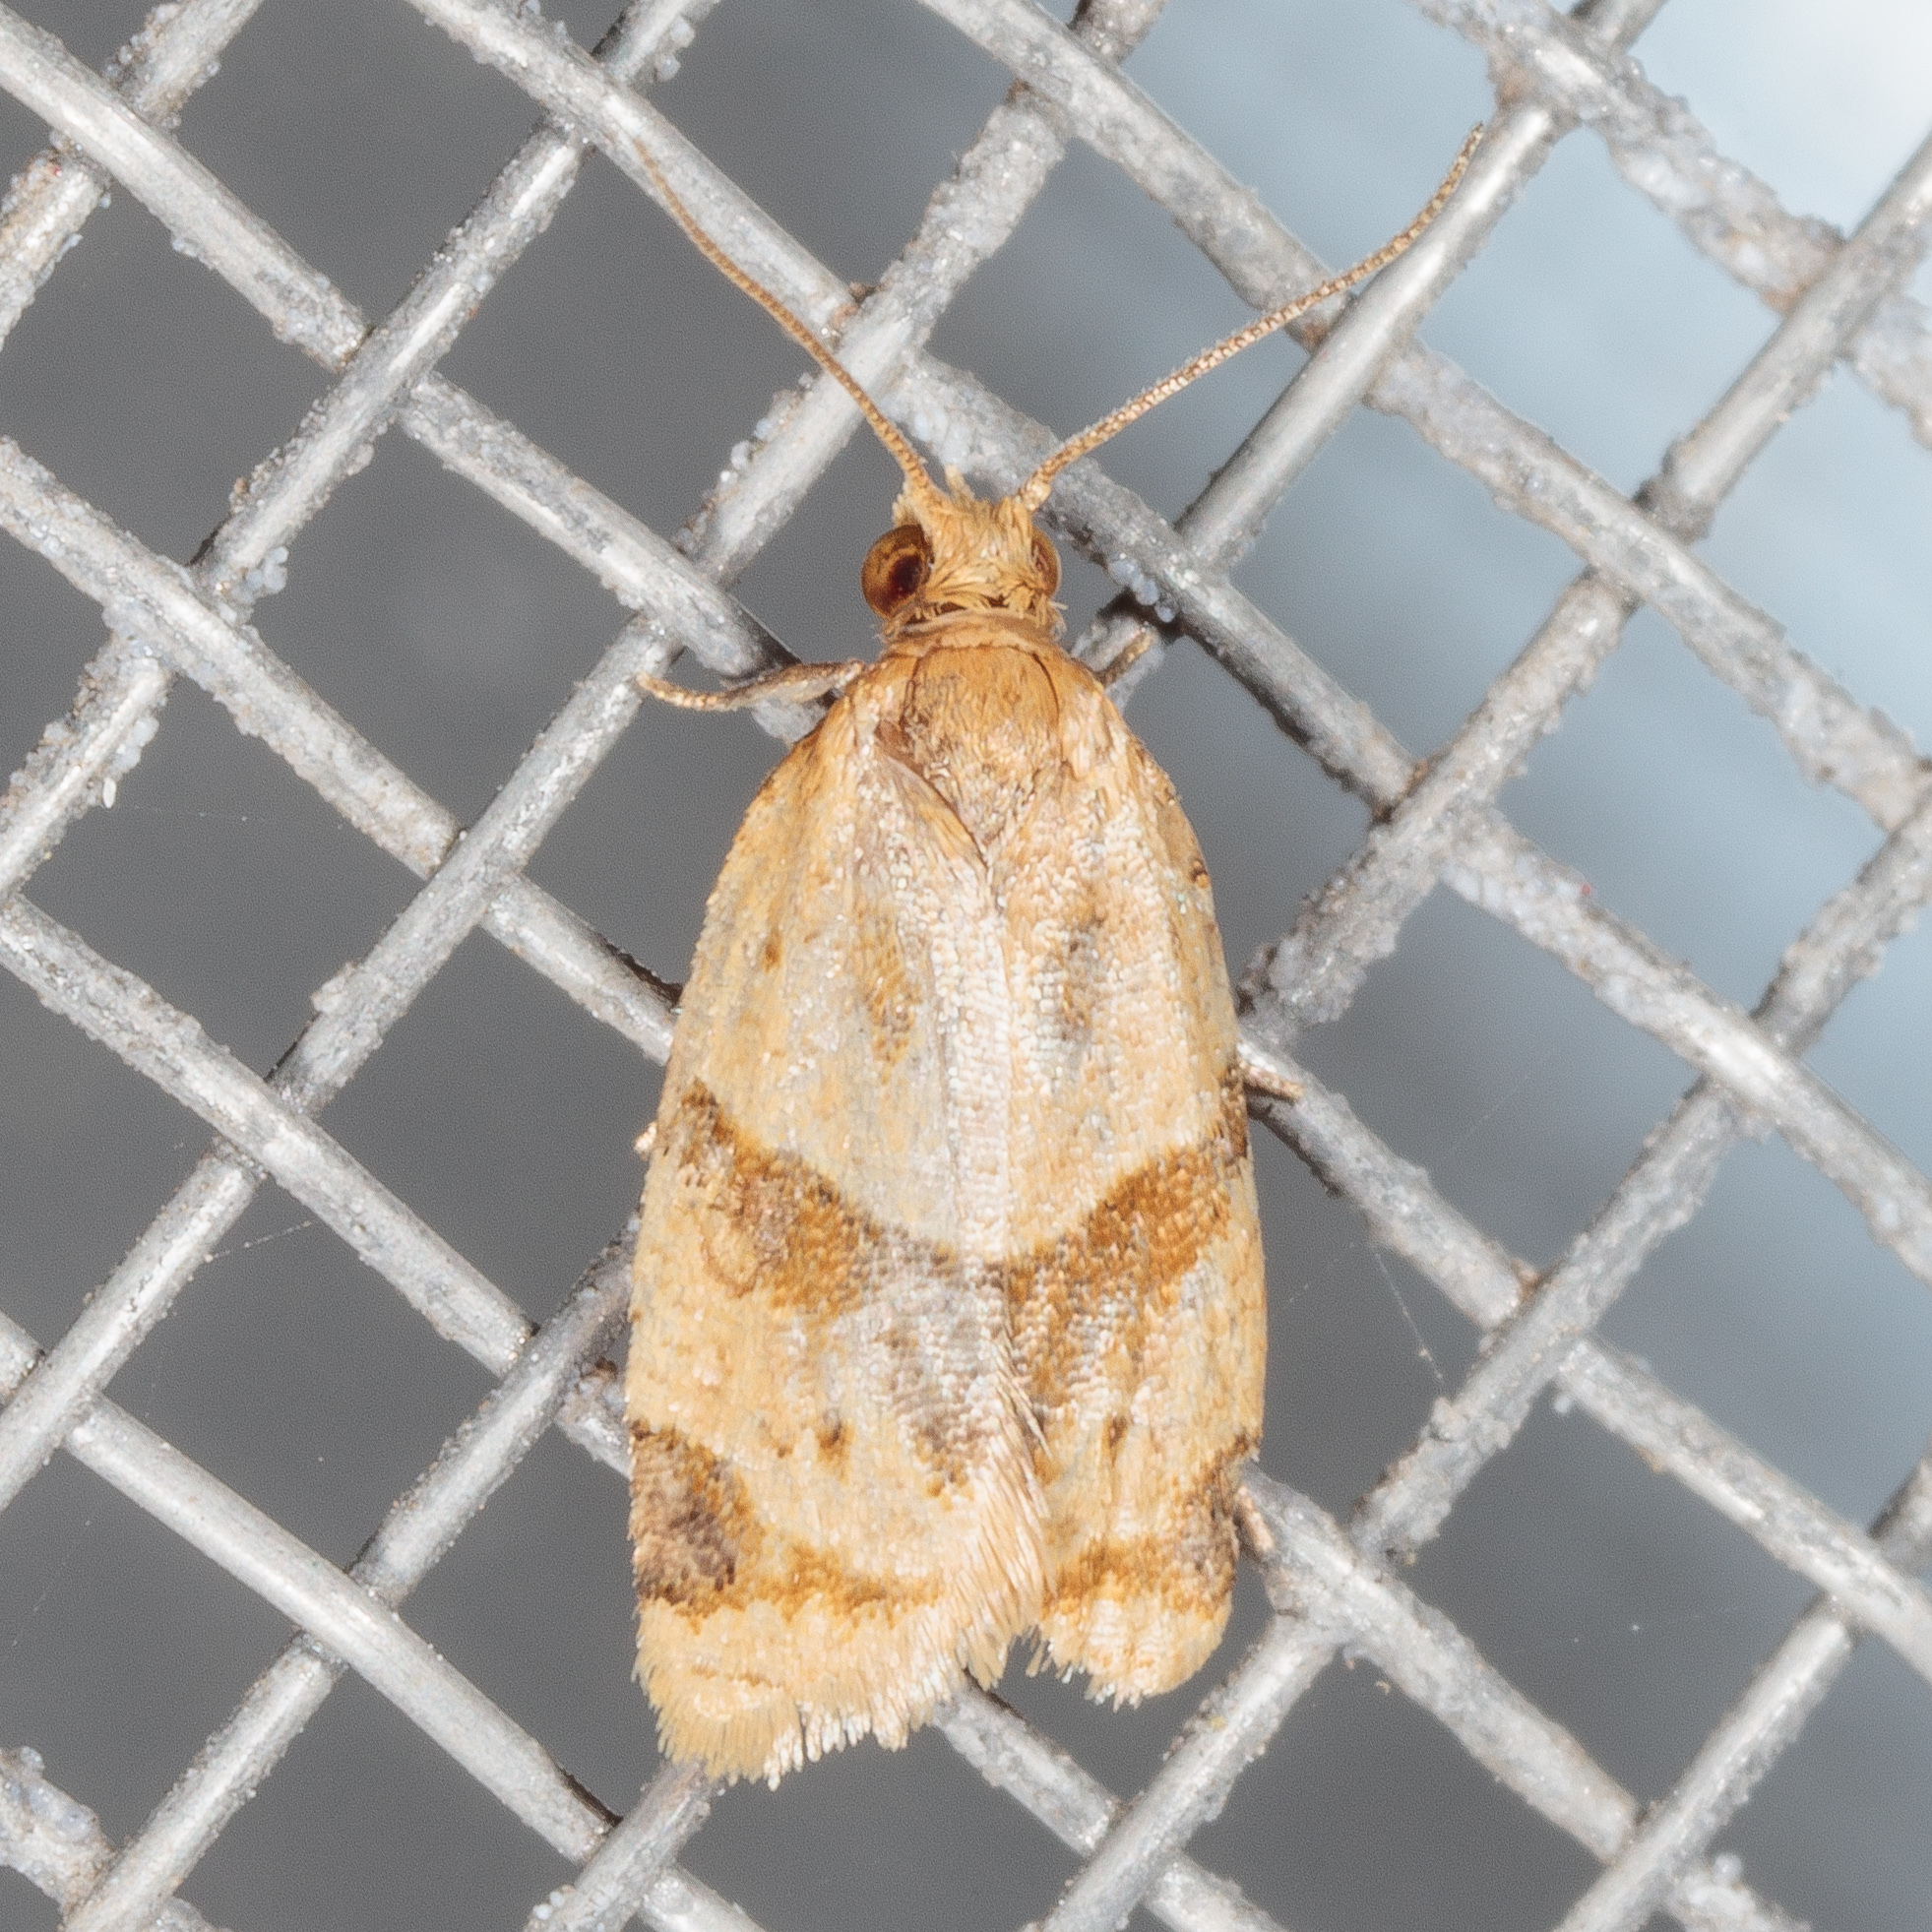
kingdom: Animalia
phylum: Arthropoda
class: Insecta
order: Lepidoptera
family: Tortricidae
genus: Clepsis
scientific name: Clepsis peritana
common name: Garden tortrix
